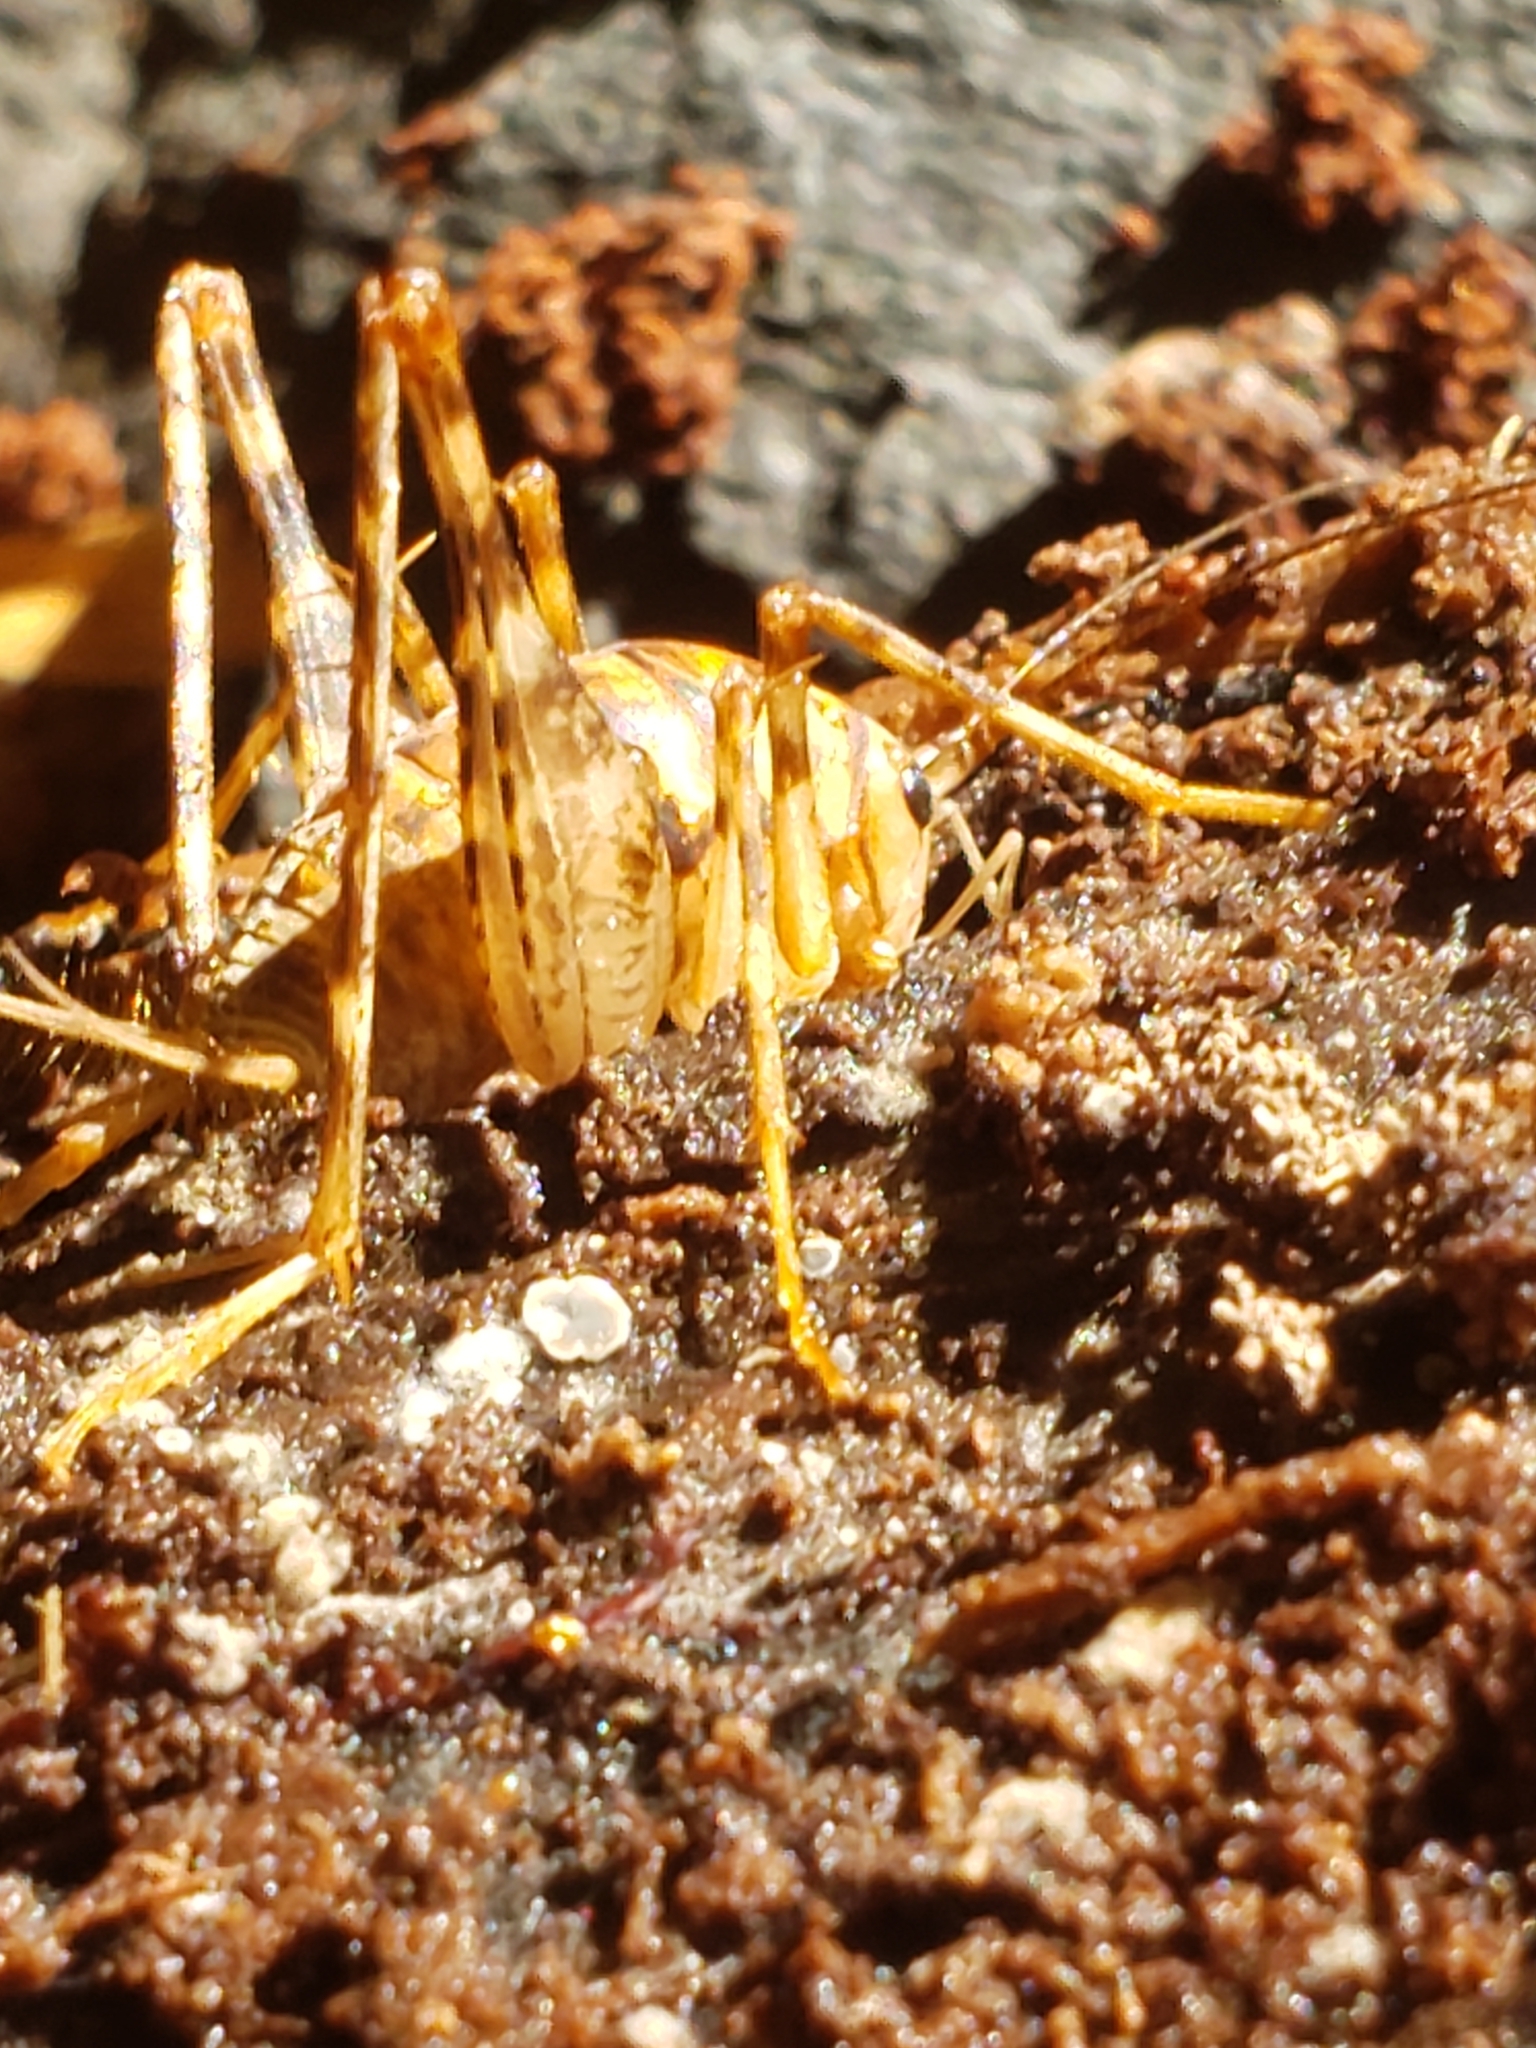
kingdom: Animalia
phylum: Arthropoda
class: Insecta
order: Orthoptera
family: Rhaphidophoridae
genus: Tachycines
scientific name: Tachycines asynamorus
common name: Greenhouse camel cricket
